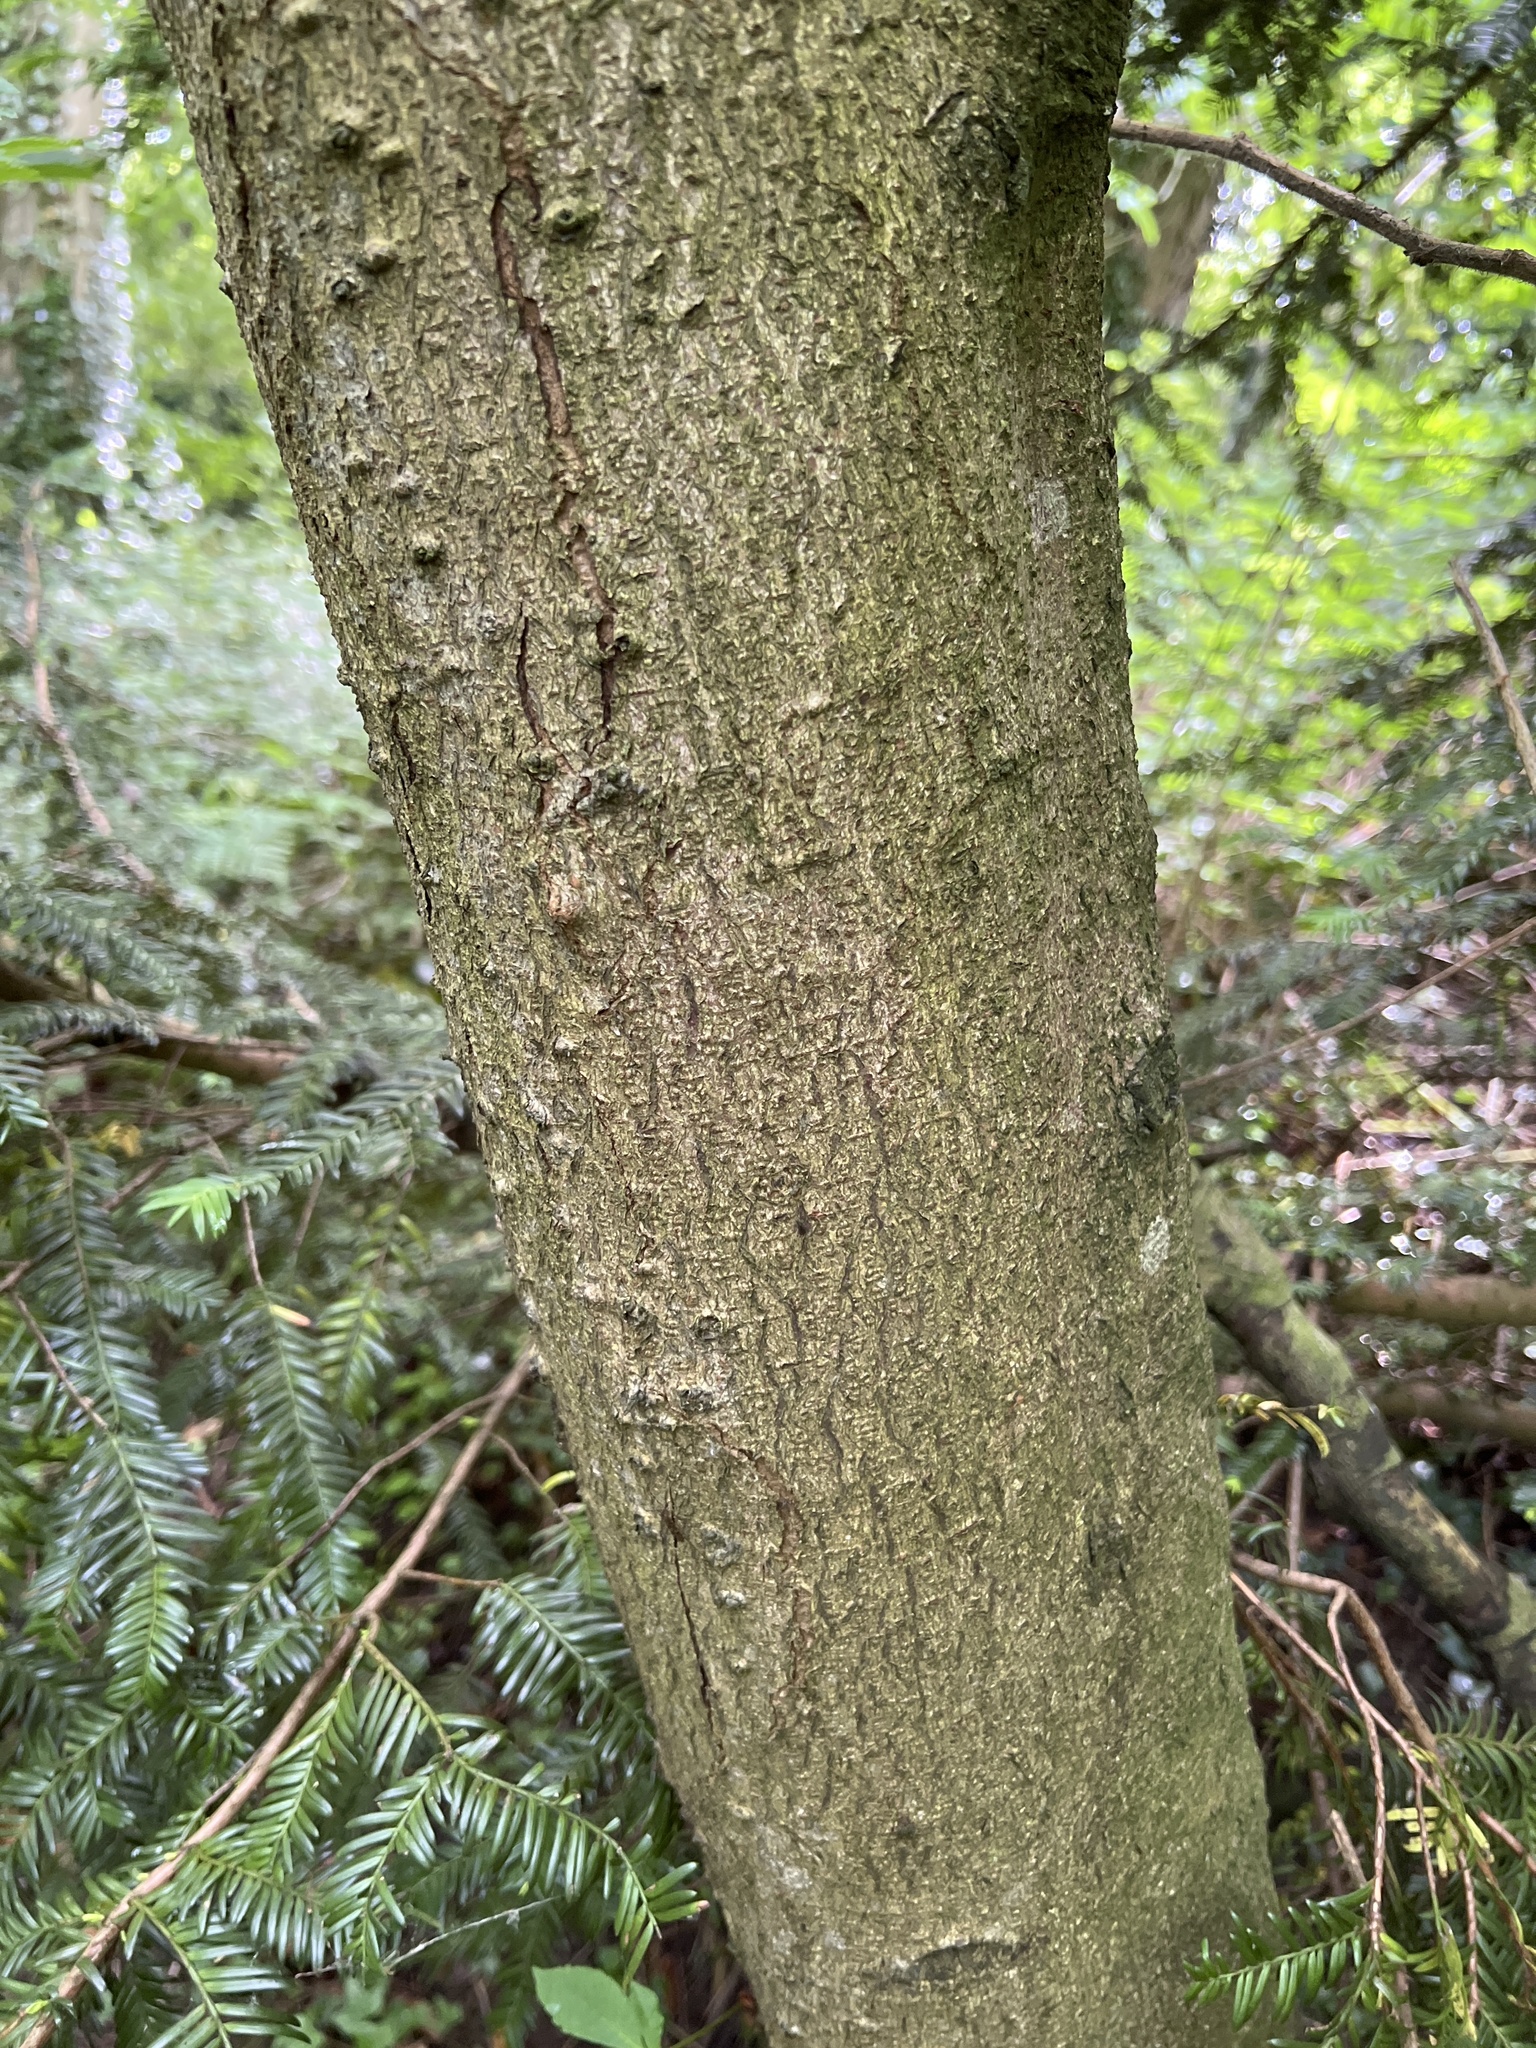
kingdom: Plantae
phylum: Tracheophyta
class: Pinopsida
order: Pinales
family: Taxaceae
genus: Taxus
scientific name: Taxus baccata
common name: Yew
